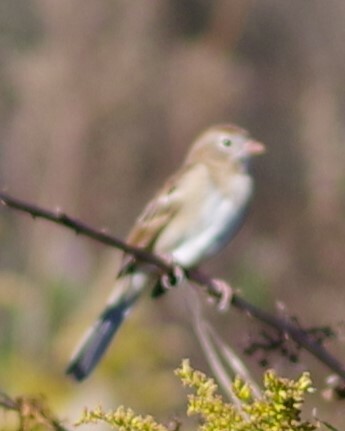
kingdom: Animalia
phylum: Chordata
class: Aves
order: Passeriformes
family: Passerellidae
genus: Spizella
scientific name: Spizella pusilla
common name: Field sparrow
